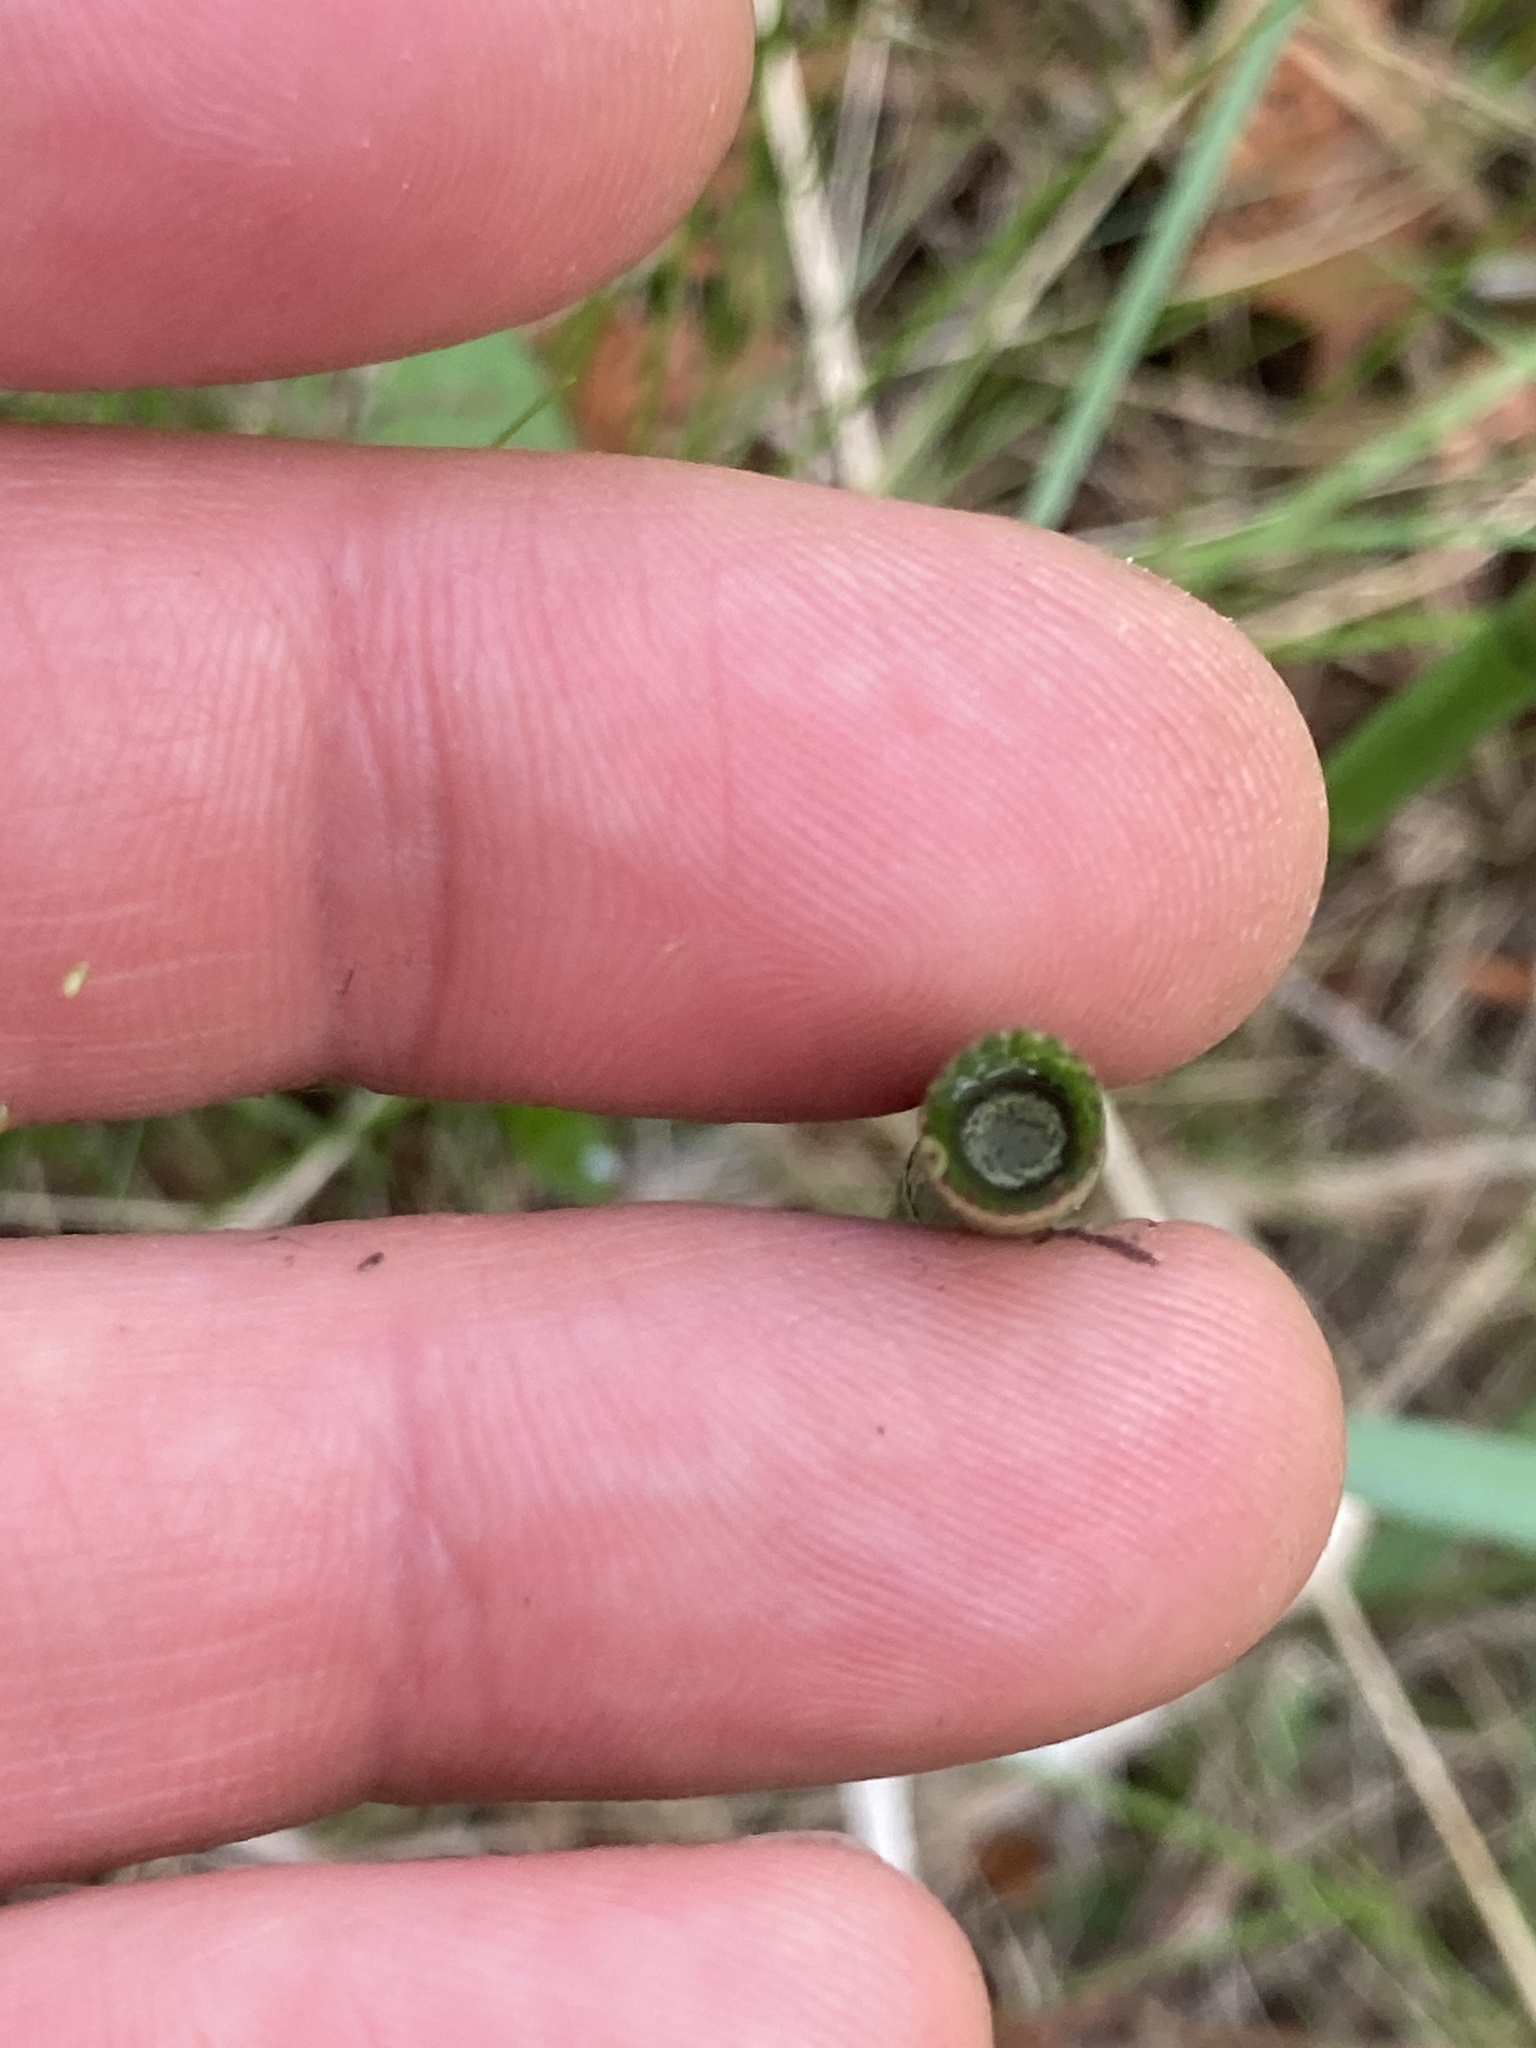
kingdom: Plantae
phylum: Tracheophyta
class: Polypodiopsida
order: Equisetales
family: Equisetaceae
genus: Equisetum
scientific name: Equisetum fluviatile
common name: Water horsetail
